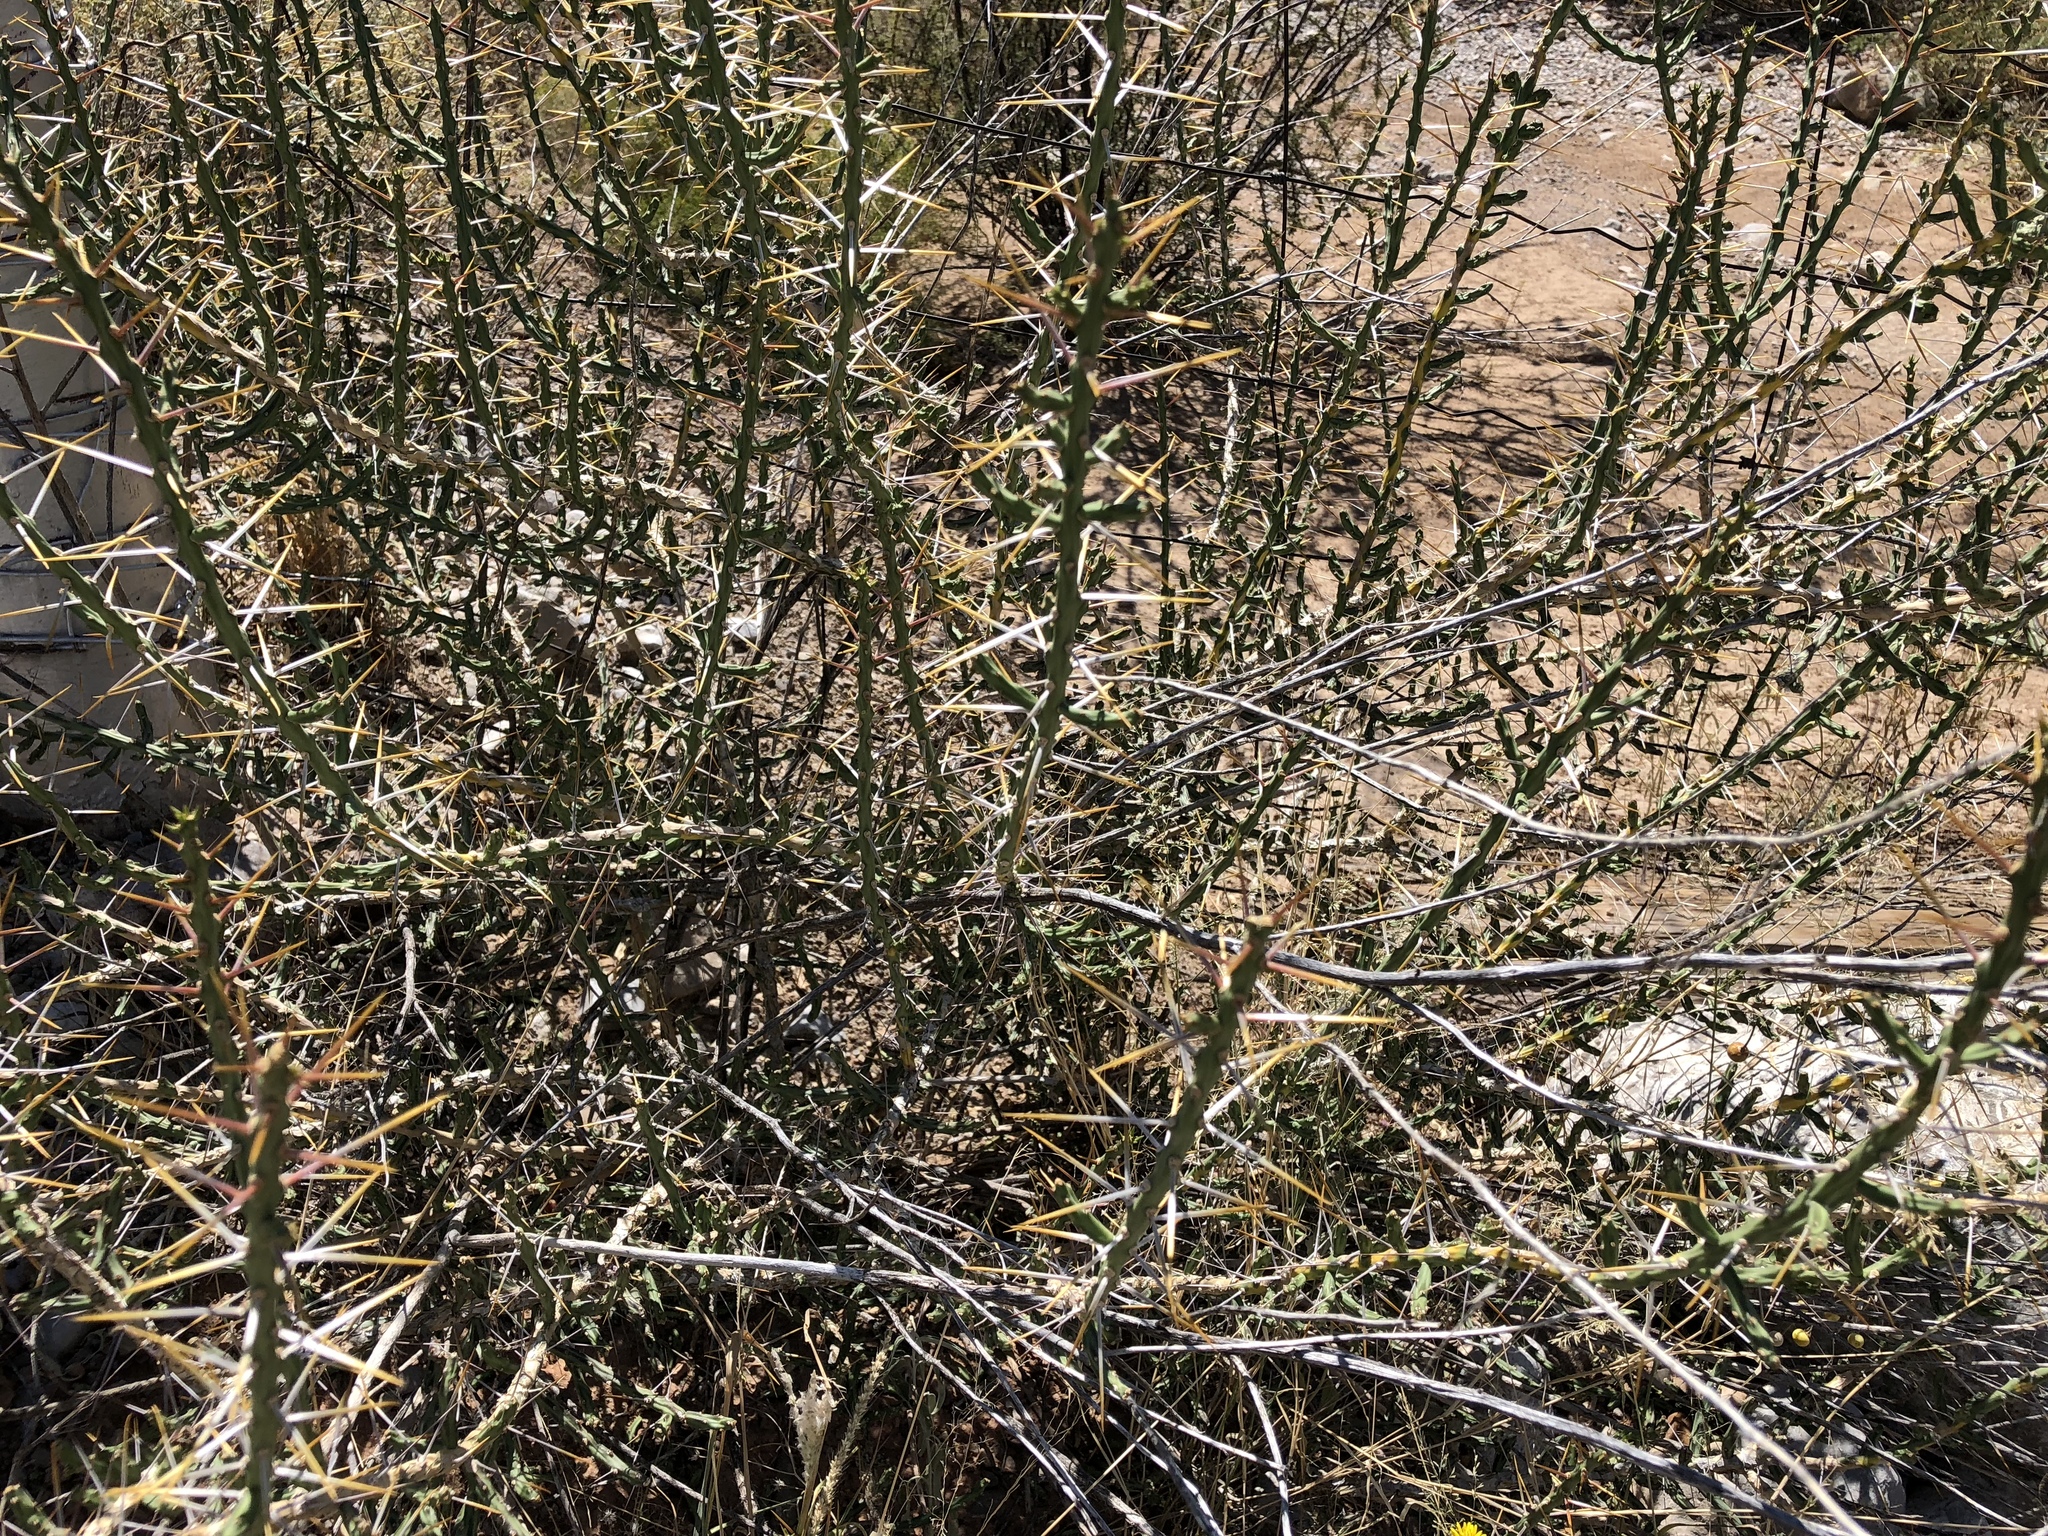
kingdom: Plantae
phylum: Tracheophyta
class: Magnoliopsida
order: Caryophyllales
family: Cactaceae
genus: Cylindropuntia
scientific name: Cylindropuntia leptocaulis
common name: Christmas cactus
